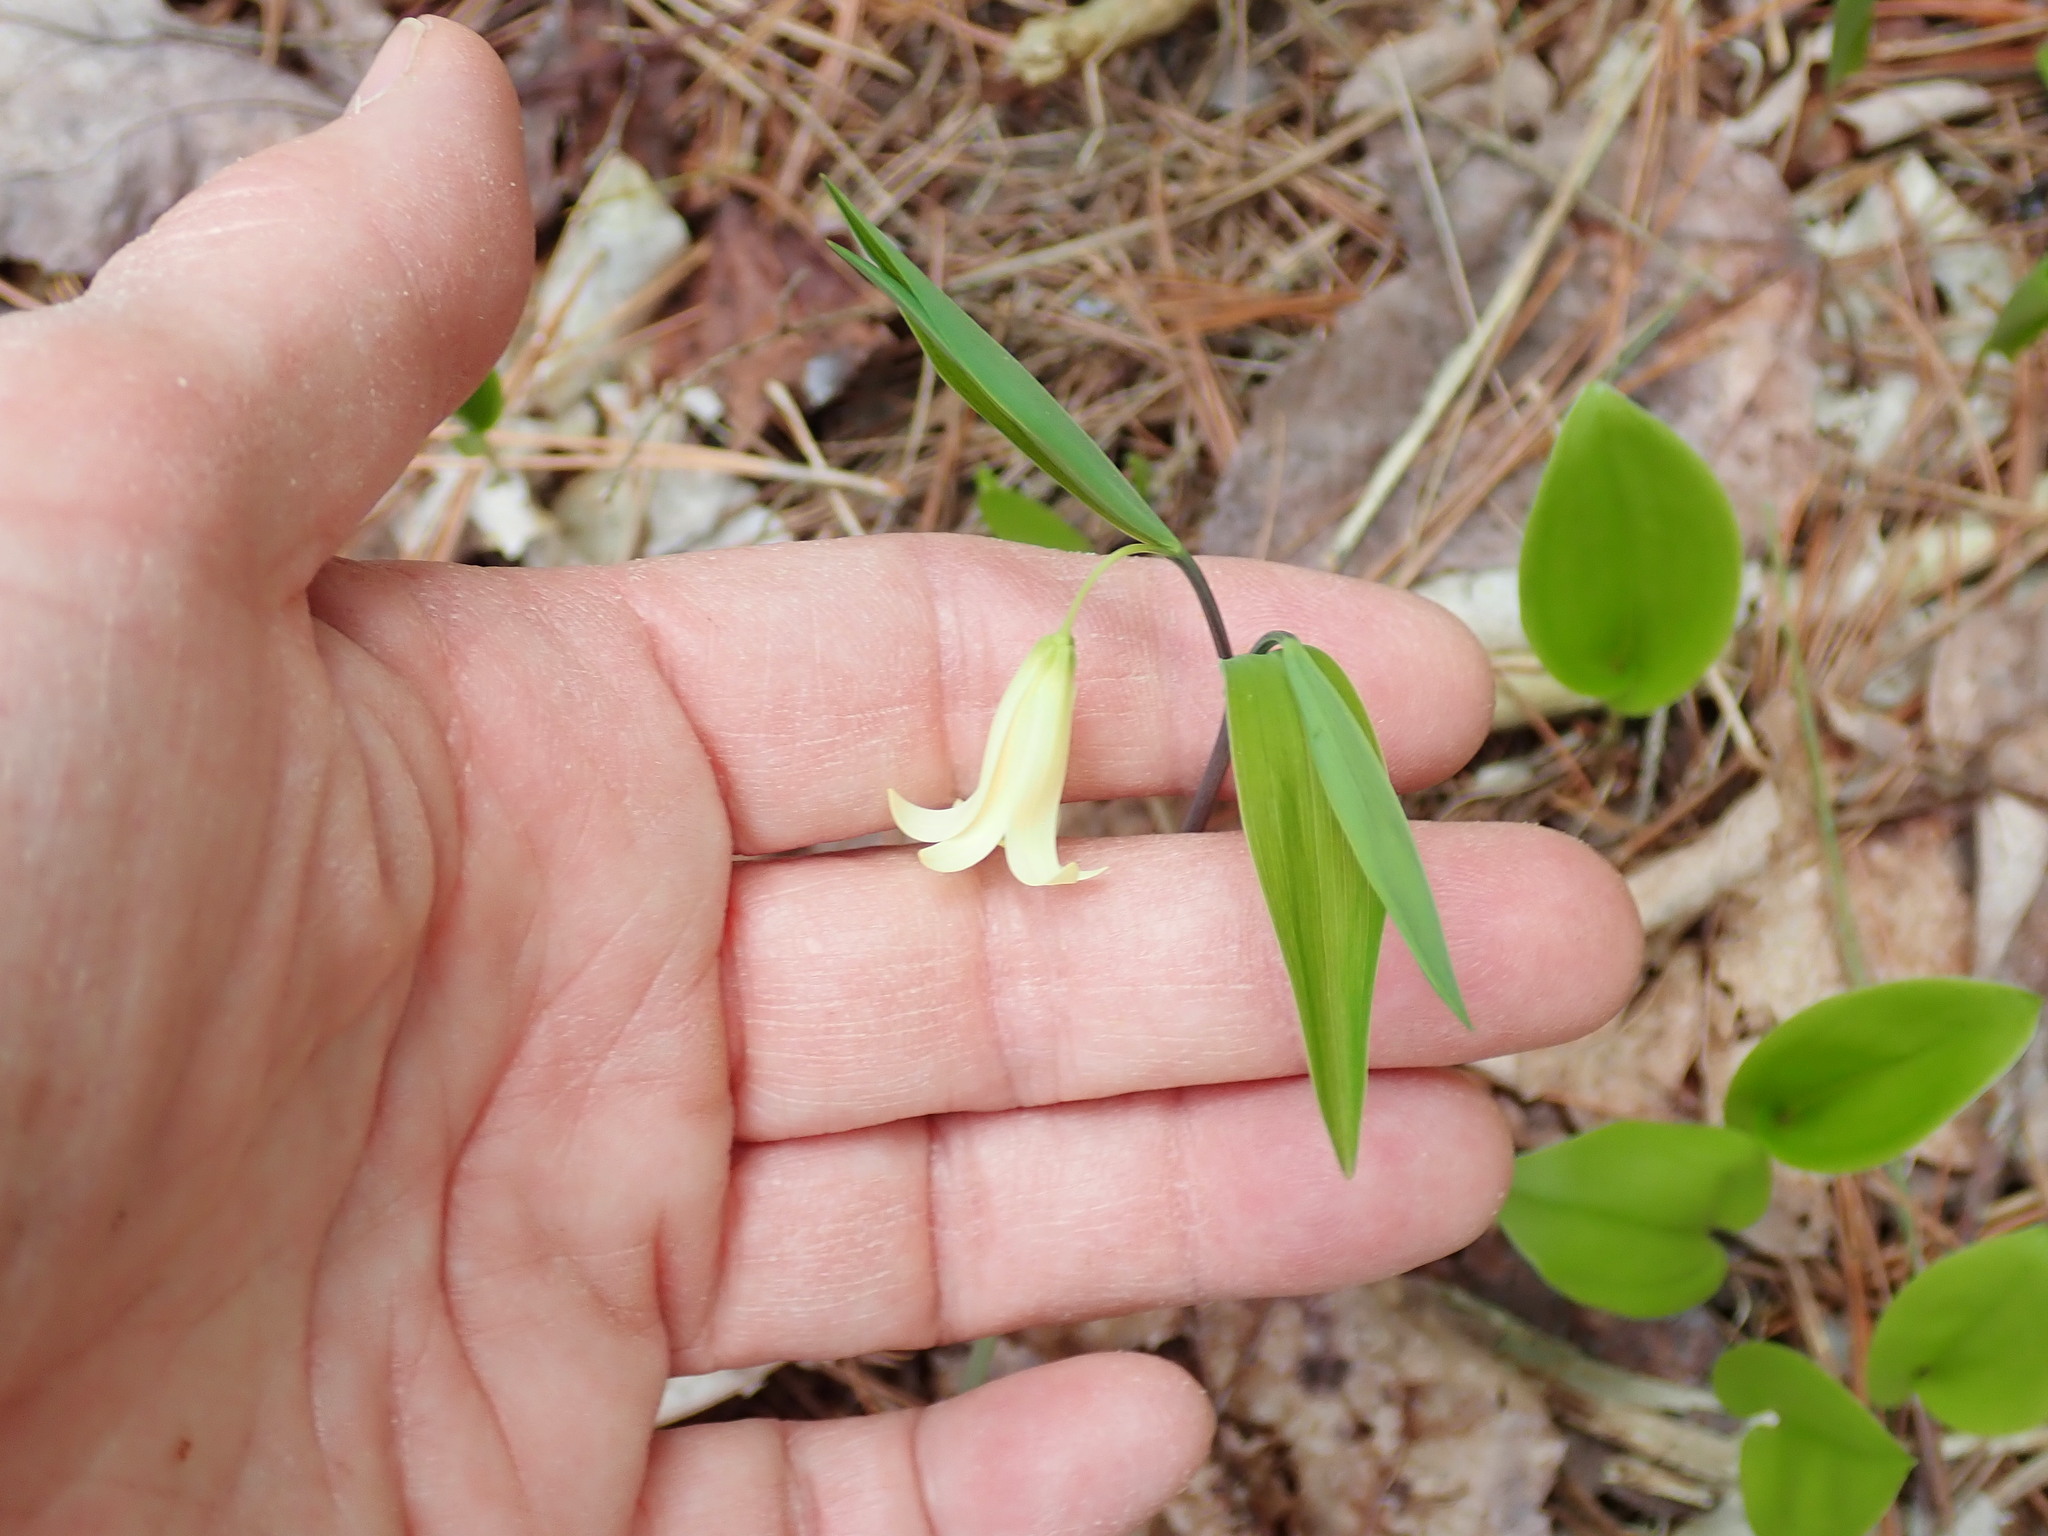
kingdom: Plantae
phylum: Tracheophyta
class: Liliopsida
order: Liliales
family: Colchicaceae
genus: Uvularia
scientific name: Uvularia sessilifolia
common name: Straw-lily
